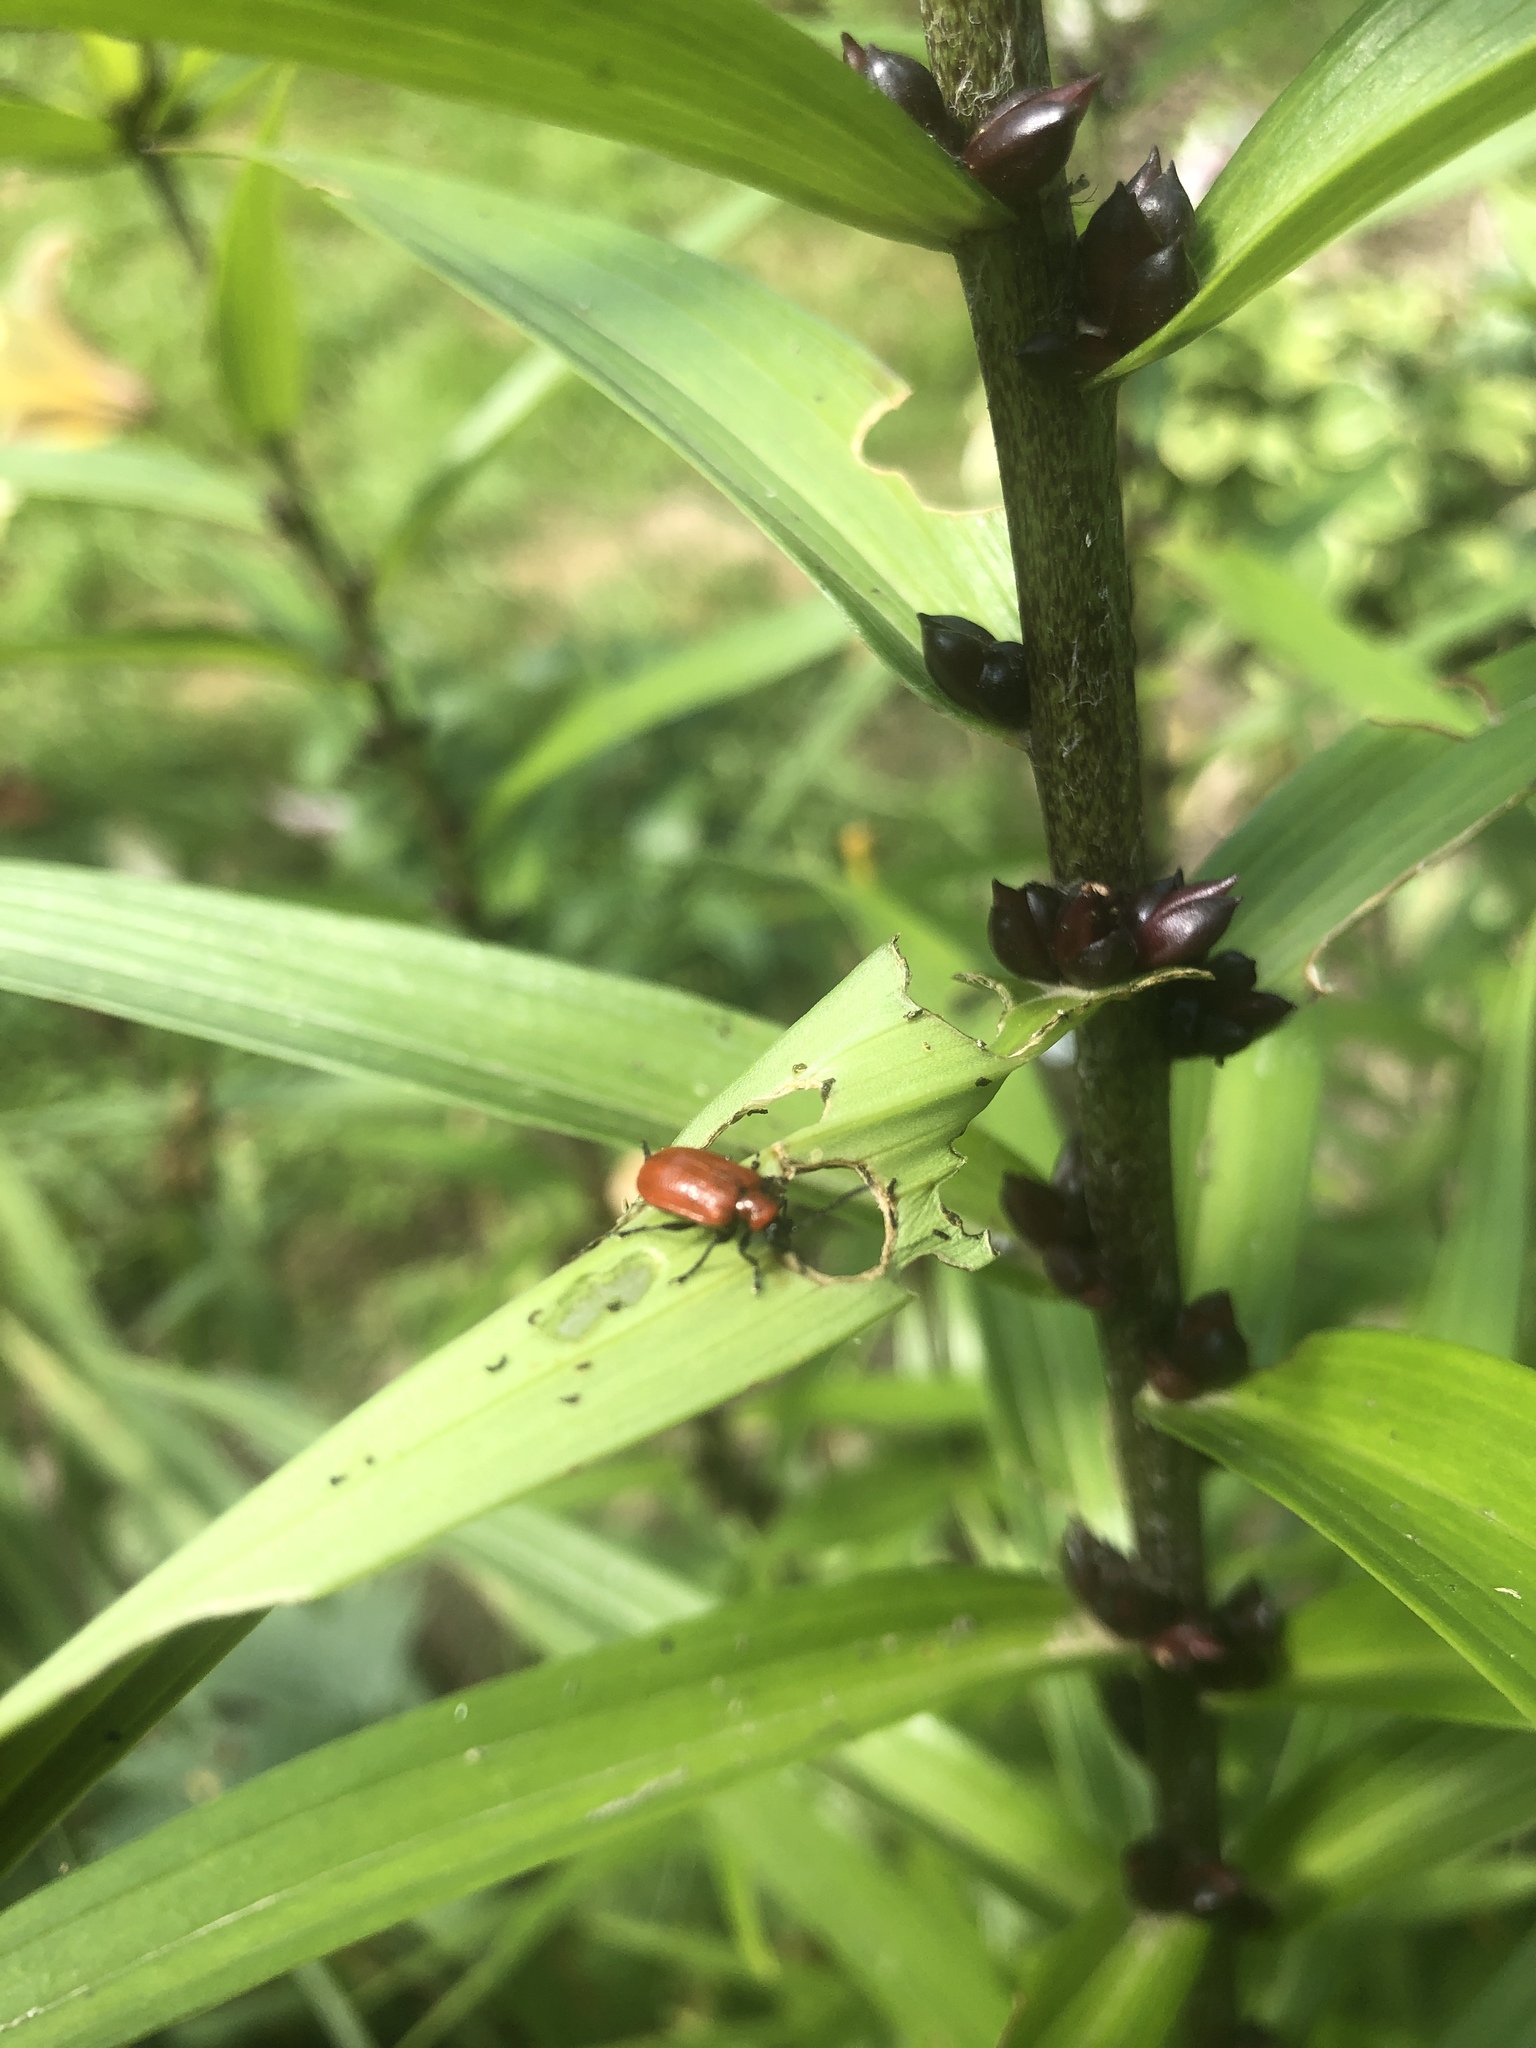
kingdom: Animalia
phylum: Arthropoda
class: Insecta
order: Coleoptera
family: Chrysomelidae
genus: Lilioceris
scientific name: Lilioceris lilii
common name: Lily beetle
